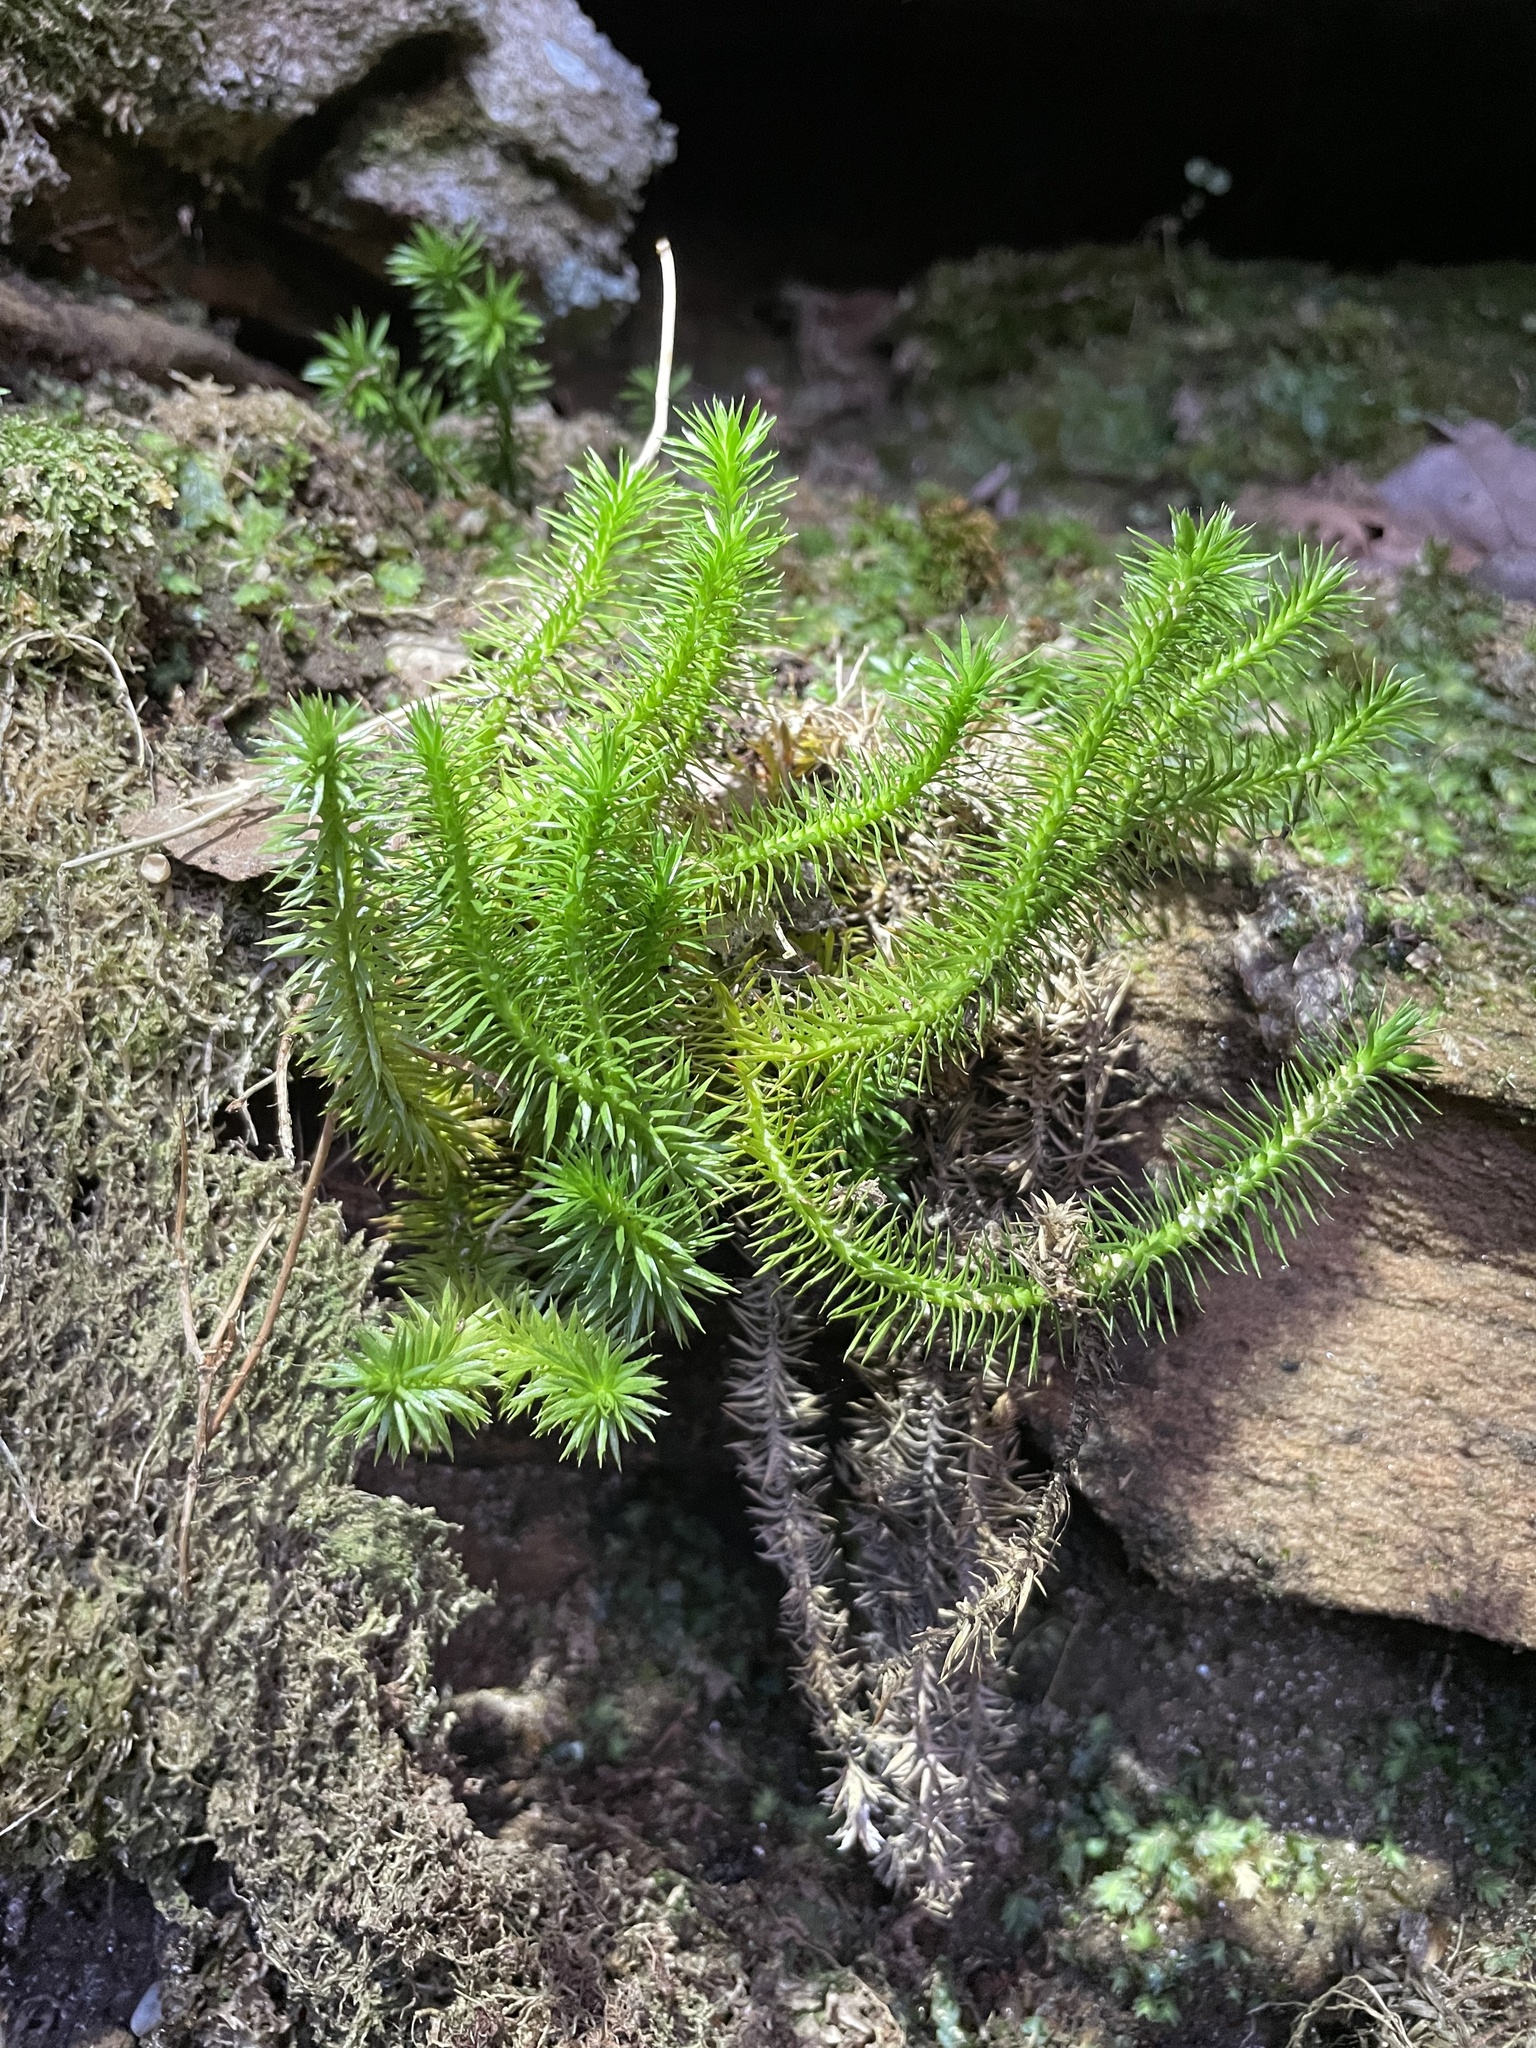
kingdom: Plantae
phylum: Tracheophyta
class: Lycopodiopsida
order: Lycopodiales
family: Lycopodiaceae
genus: Huperzia
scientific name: Huperzia porophila
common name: Rock clubmoss
